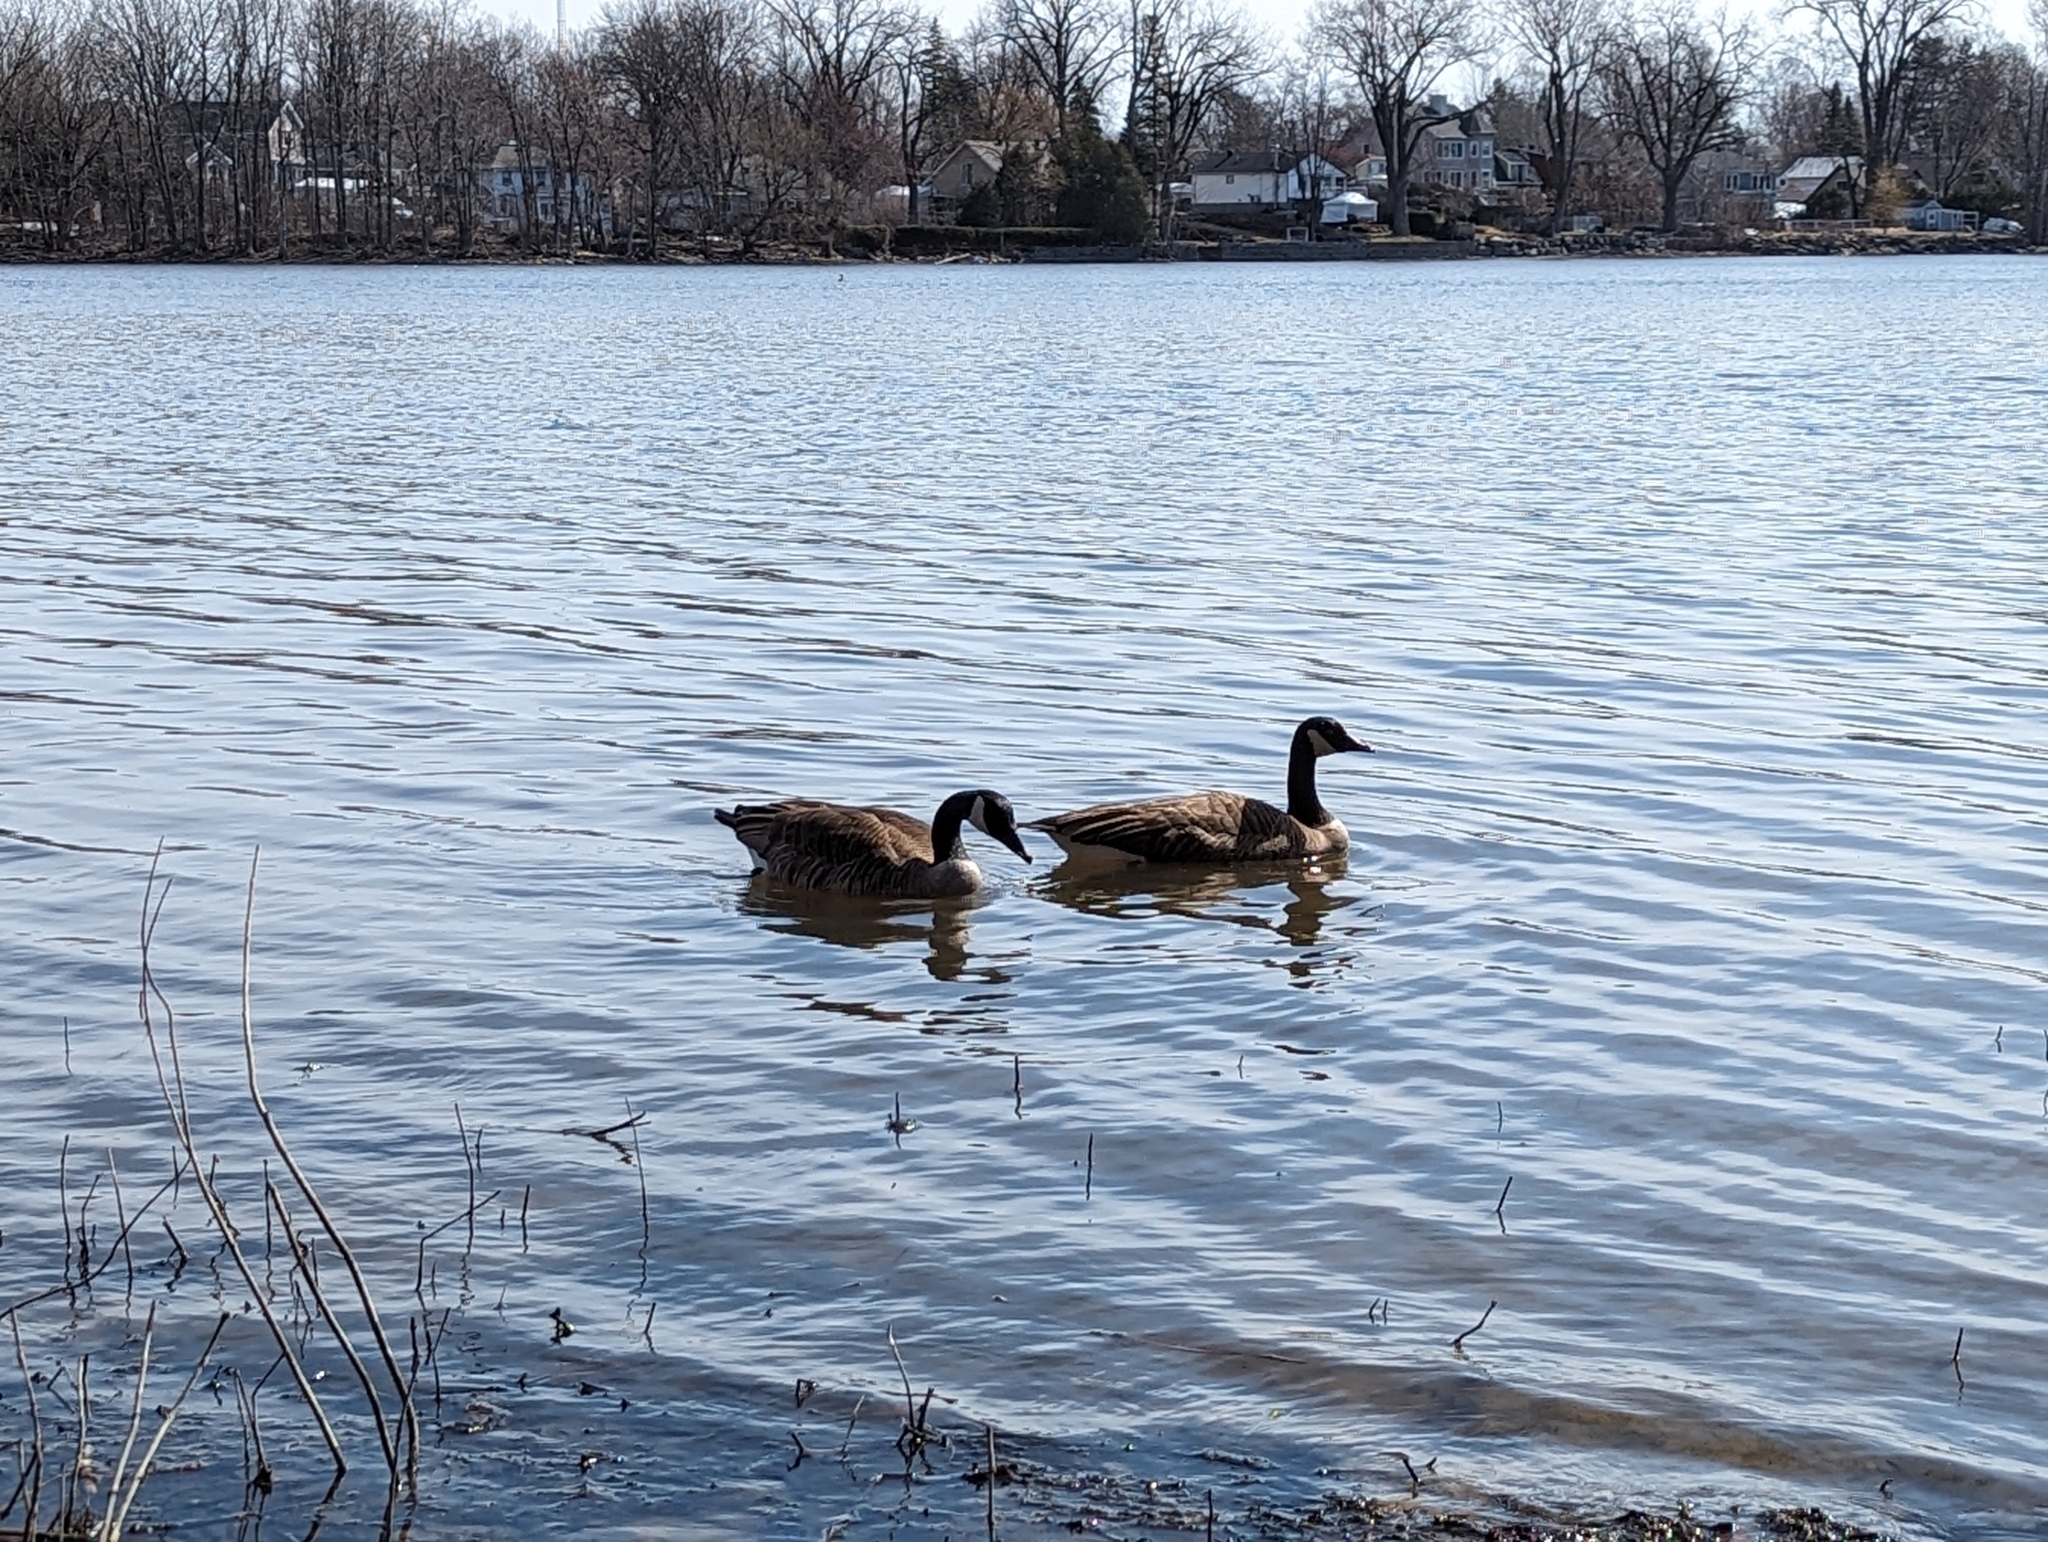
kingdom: Animalia
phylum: Chordata
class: Aves
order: Anseriformes
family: Anatidae
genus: Branta
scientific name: Branta canadensis
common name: Canada goose
